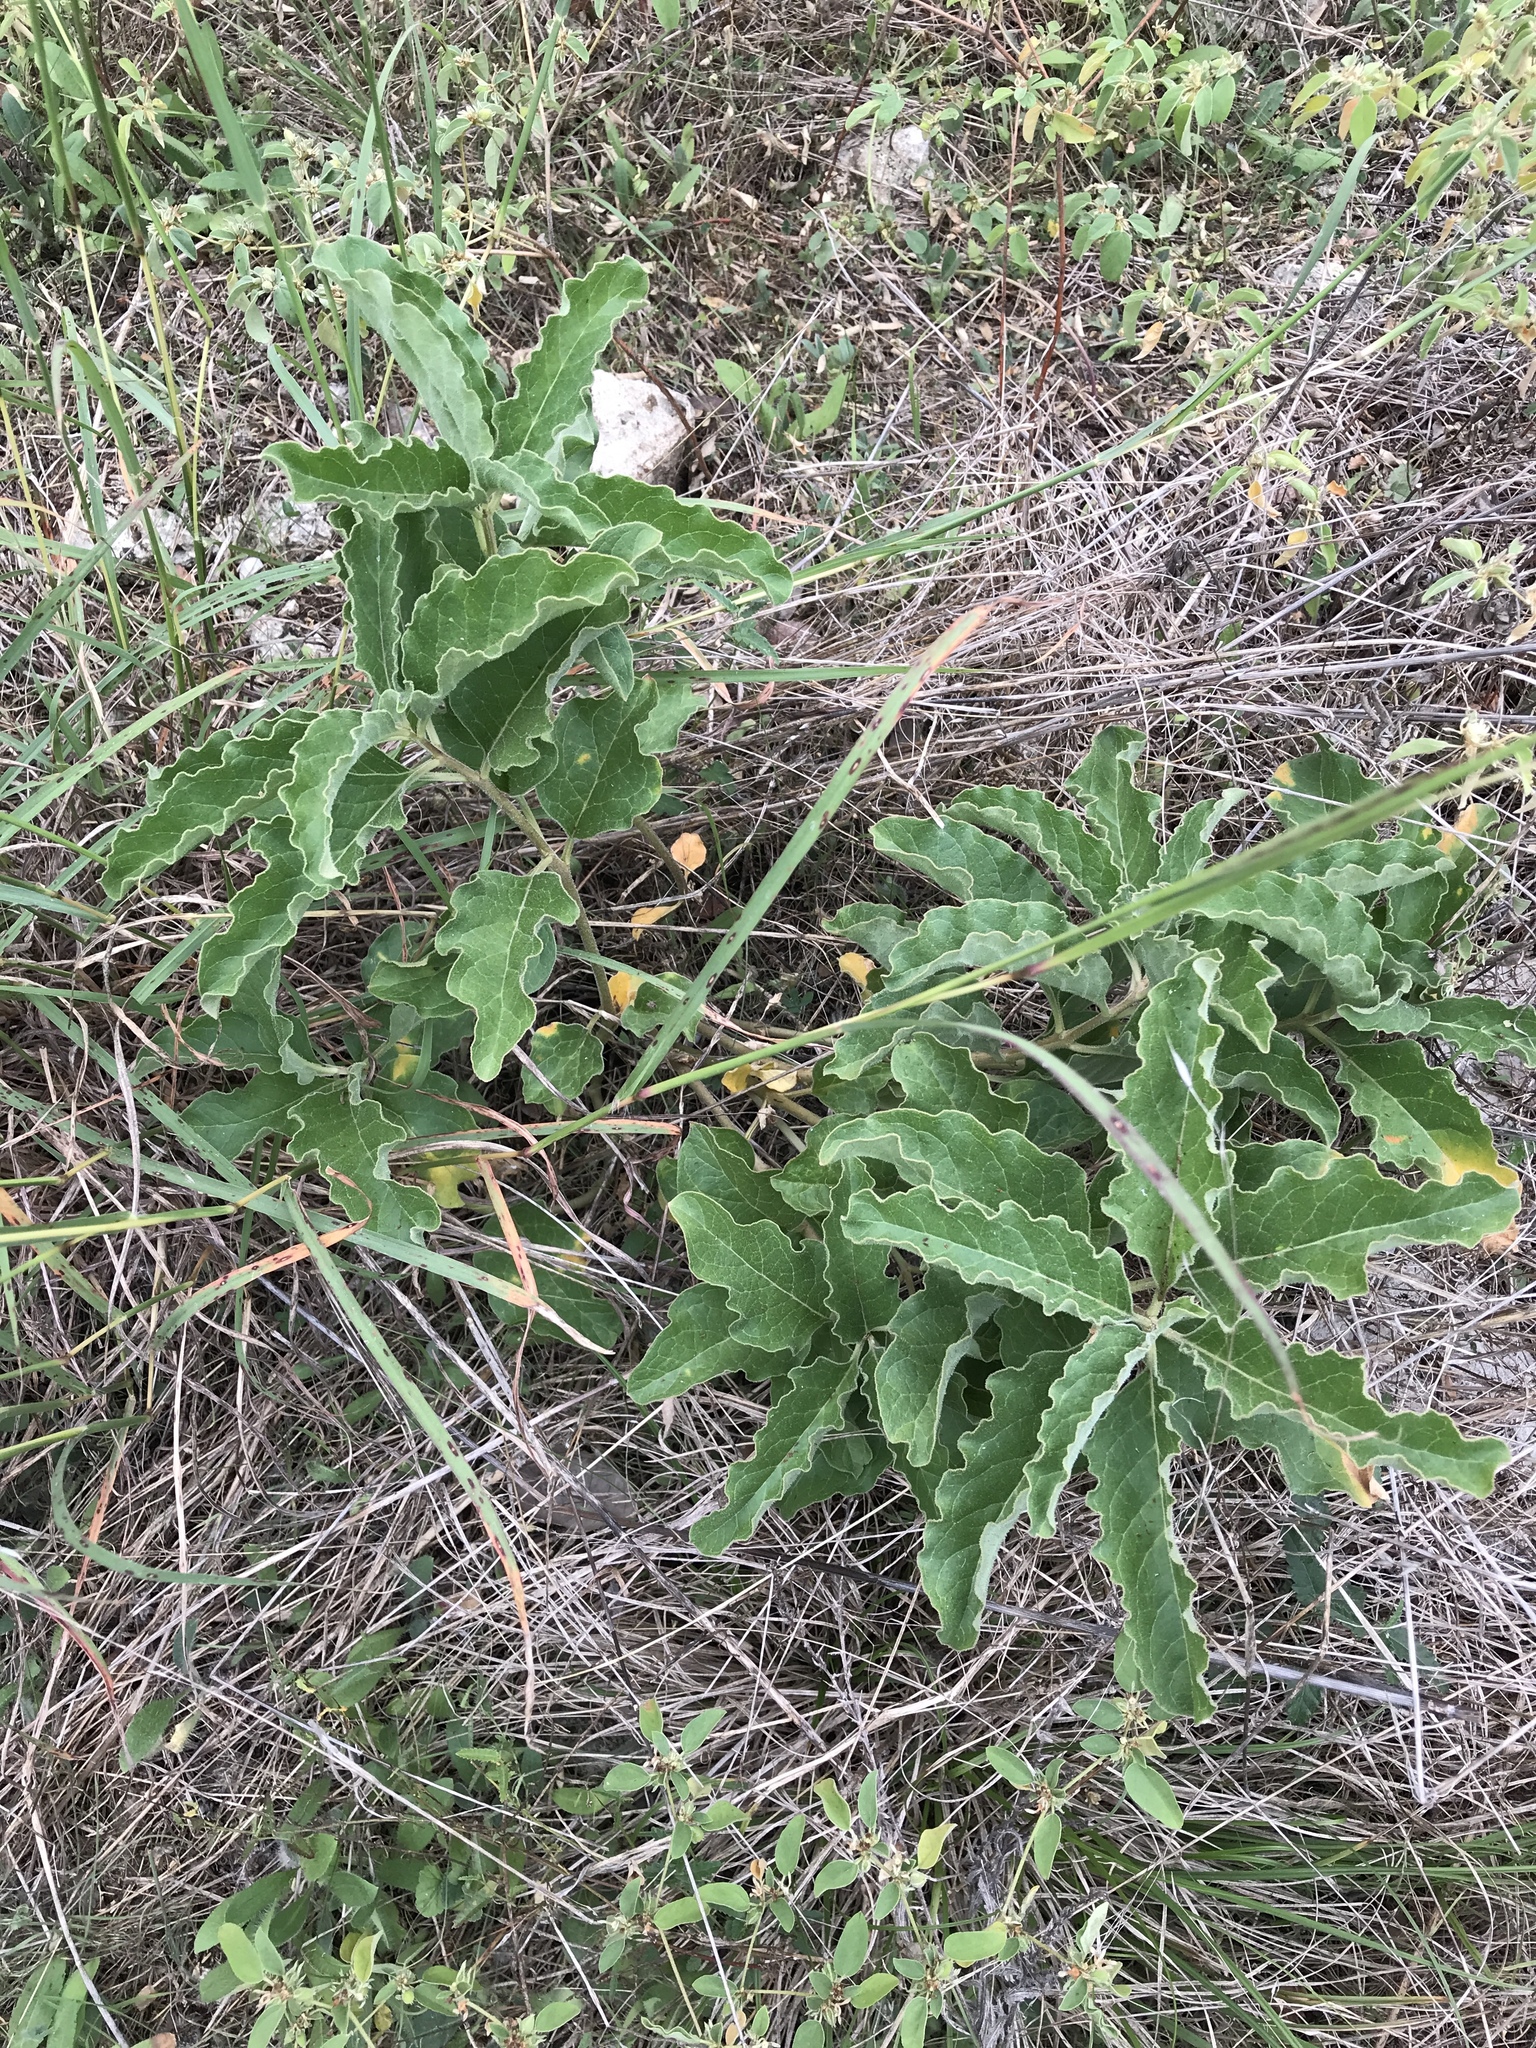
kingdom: Plantae
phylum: Tracheophyta
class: Magnoliopsida
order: Gentianales
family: Apocynaceae
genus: Asclepias
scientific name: Asclepias oenotheroides
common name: Zizotes milkweed
